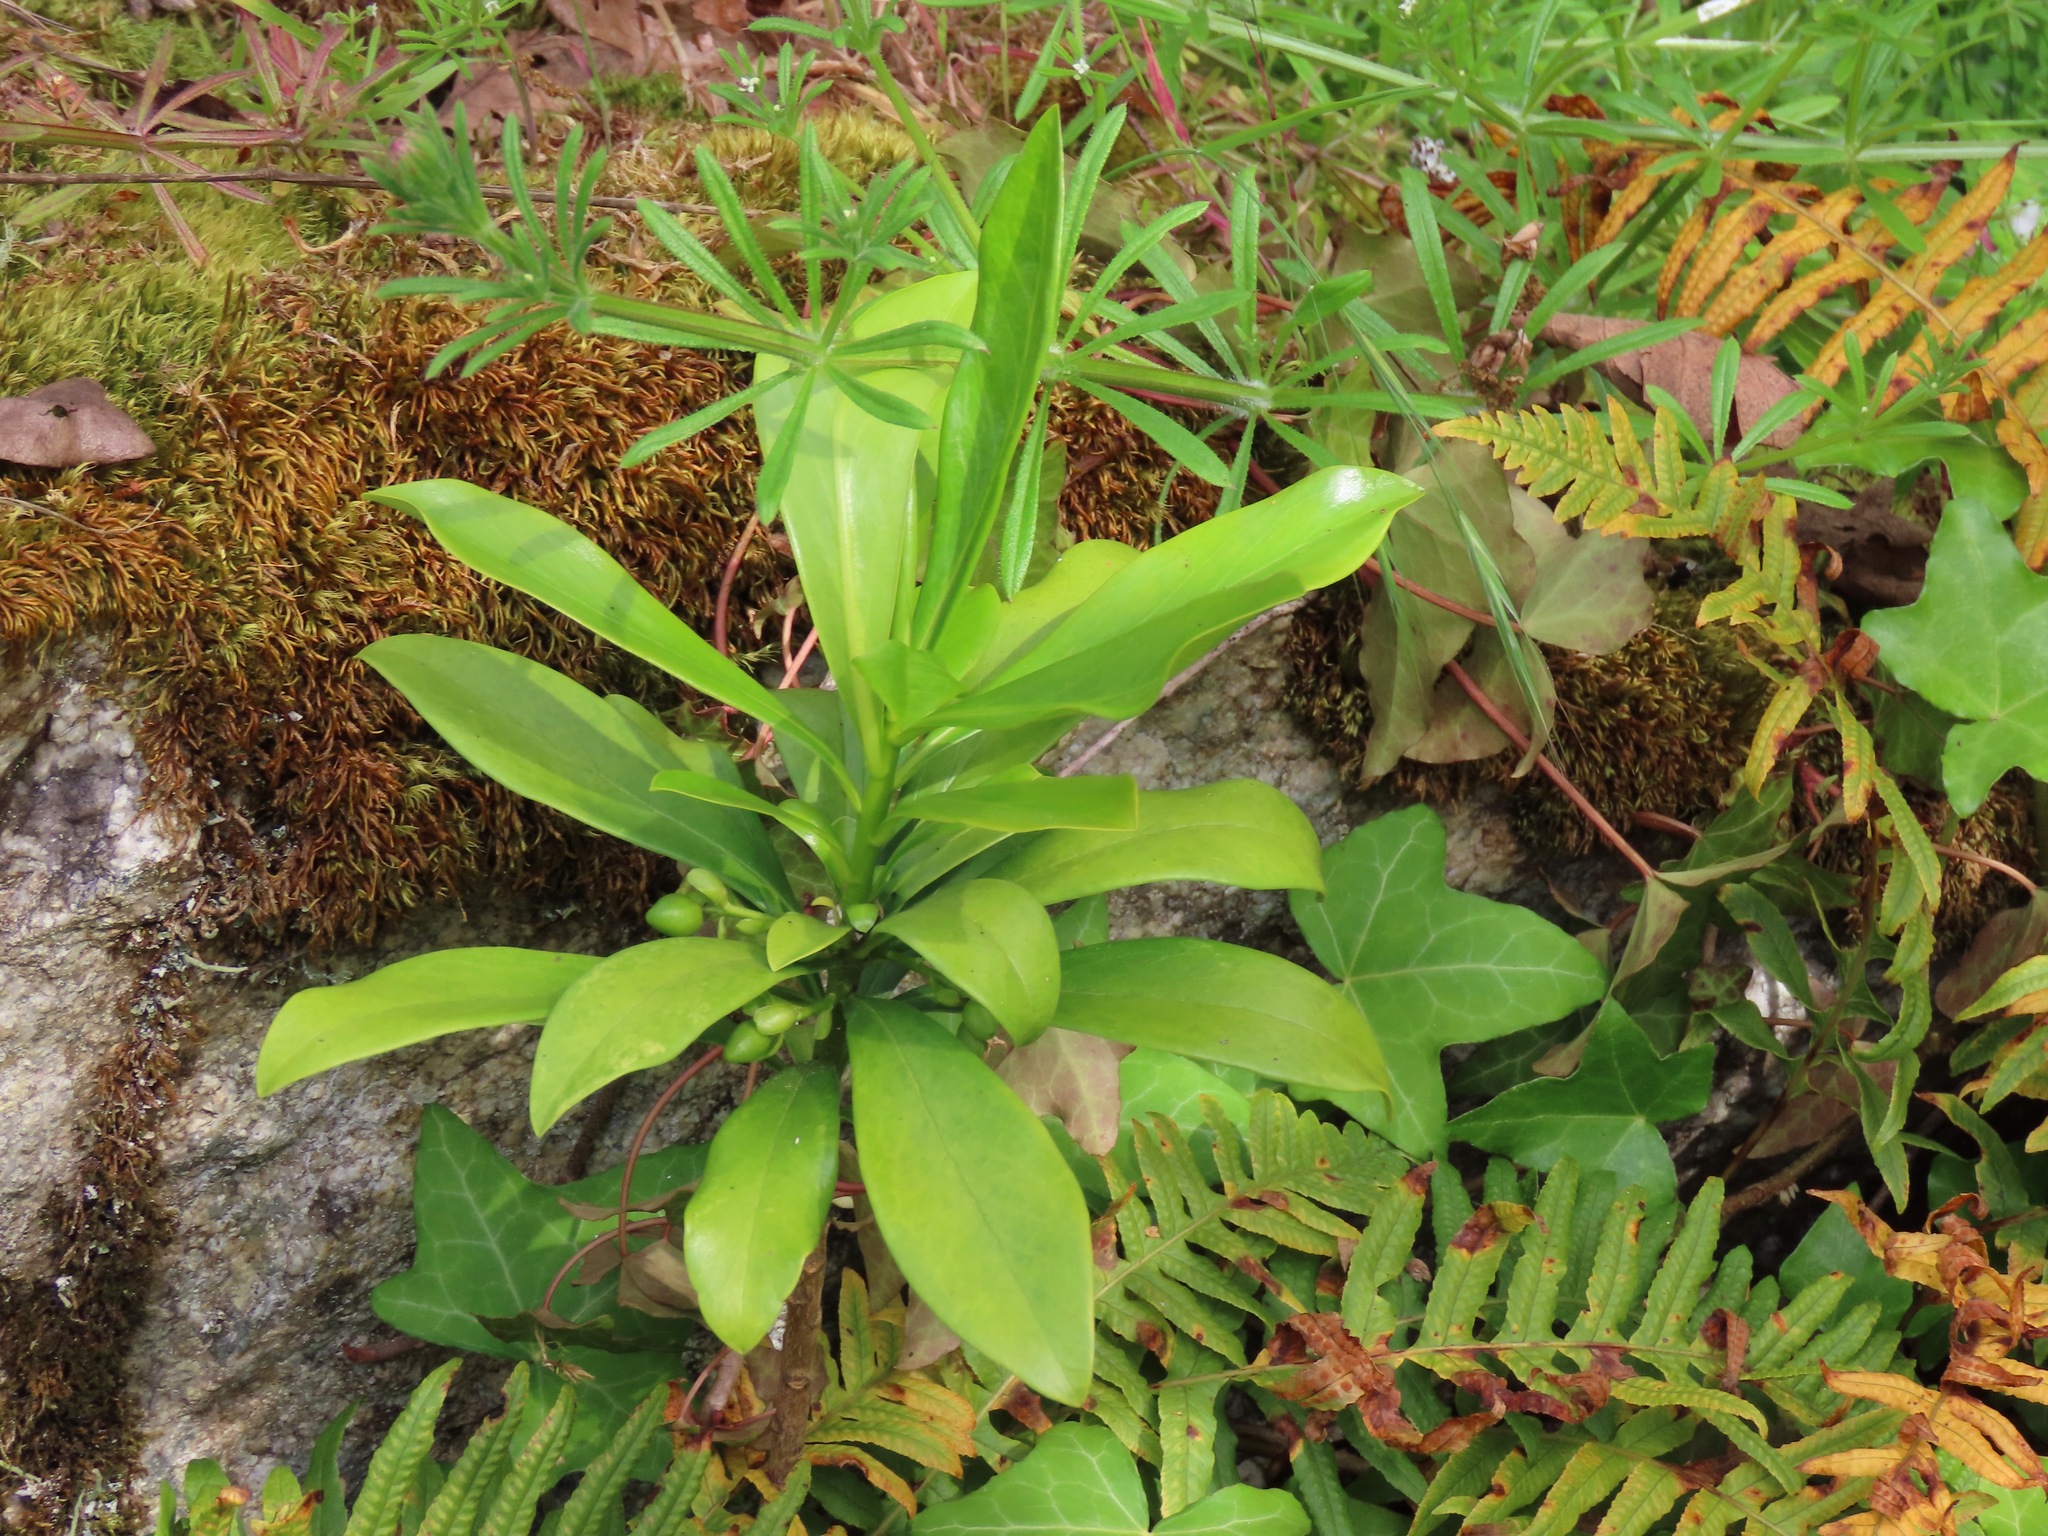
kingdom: Plantae
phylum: Tracheophyta
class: Magnoliopsida
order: Malvales
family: Thymelaeaceae
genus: Daphne
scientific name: Daphne laureola
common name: Spurge-laurel
